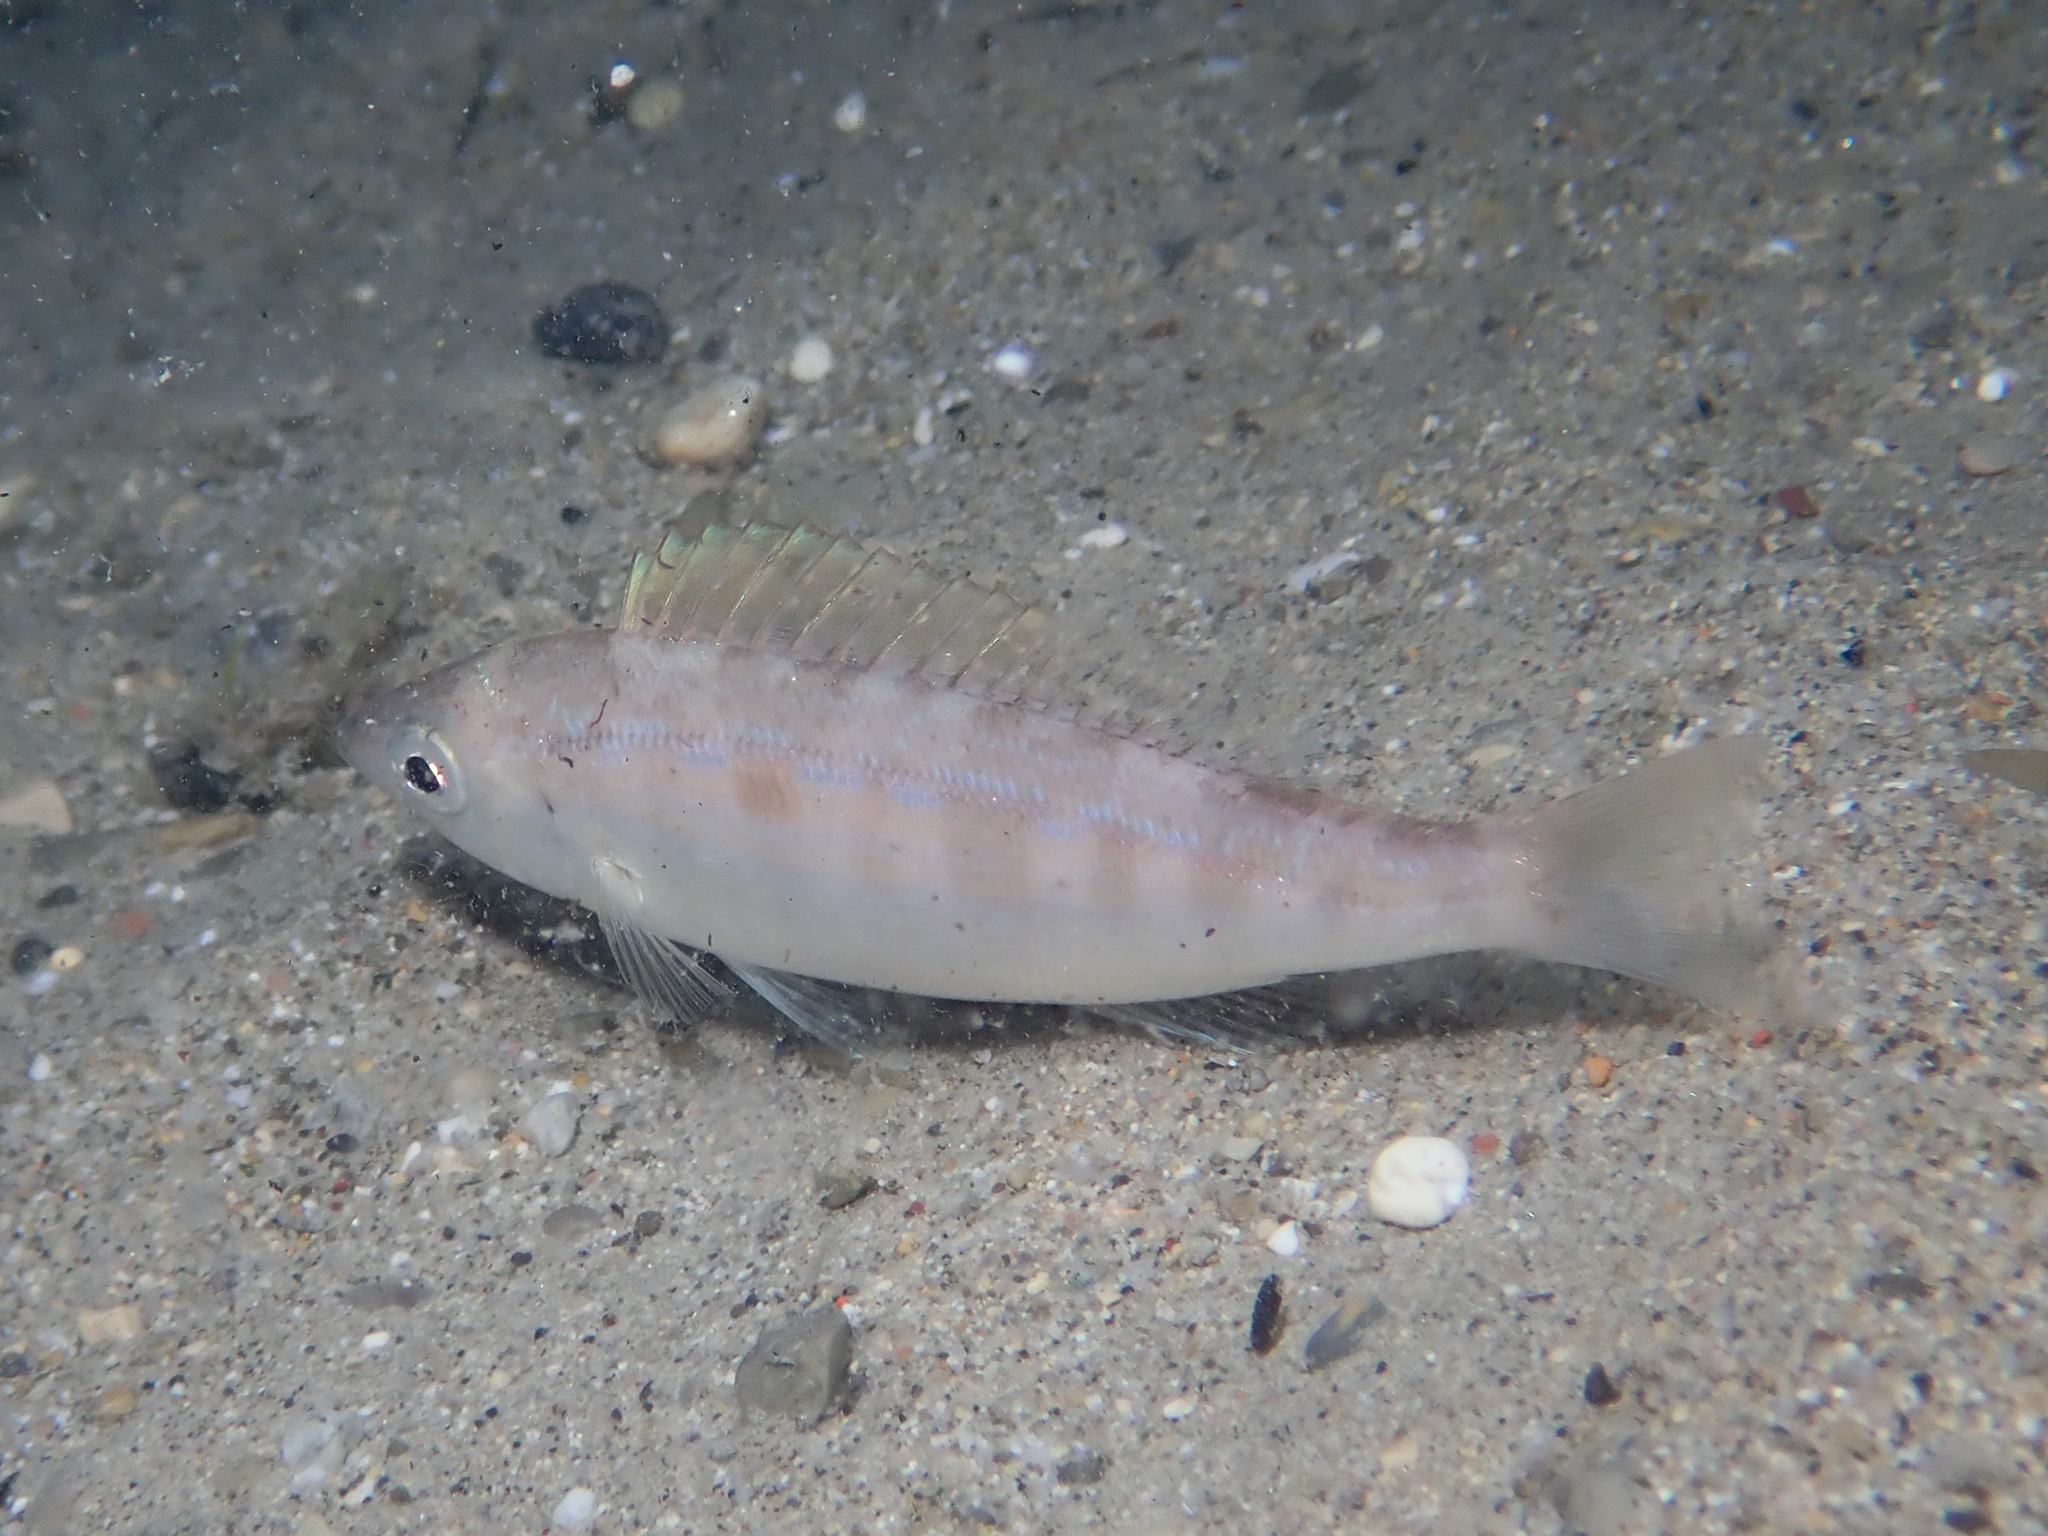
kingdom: Animalia
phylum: Chordata
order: Perciformes
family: Sparidae
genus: Spicara
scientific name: Spicara maena
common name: Blotched picarel
